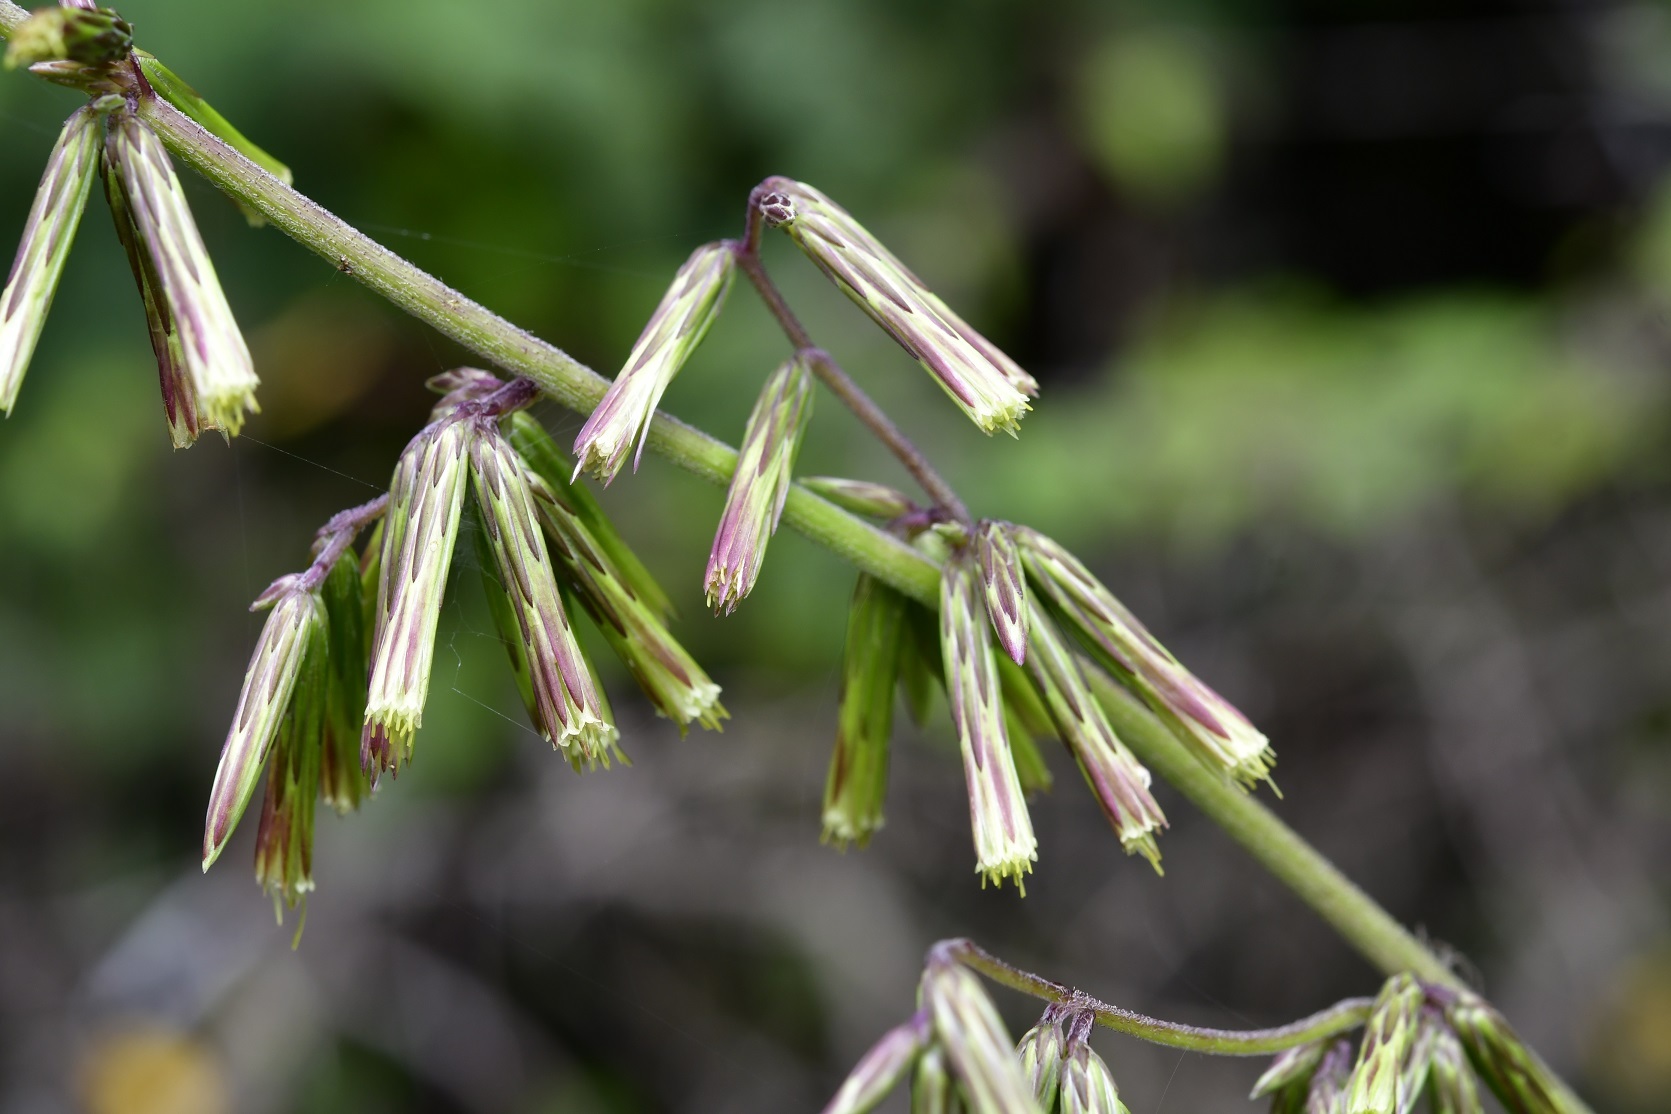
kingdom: Plantae
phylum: Tracheophyta
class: Magnoliopsida
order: Asterales
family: Asteraceae
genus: Carminatia
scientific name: Carminatia recondita
